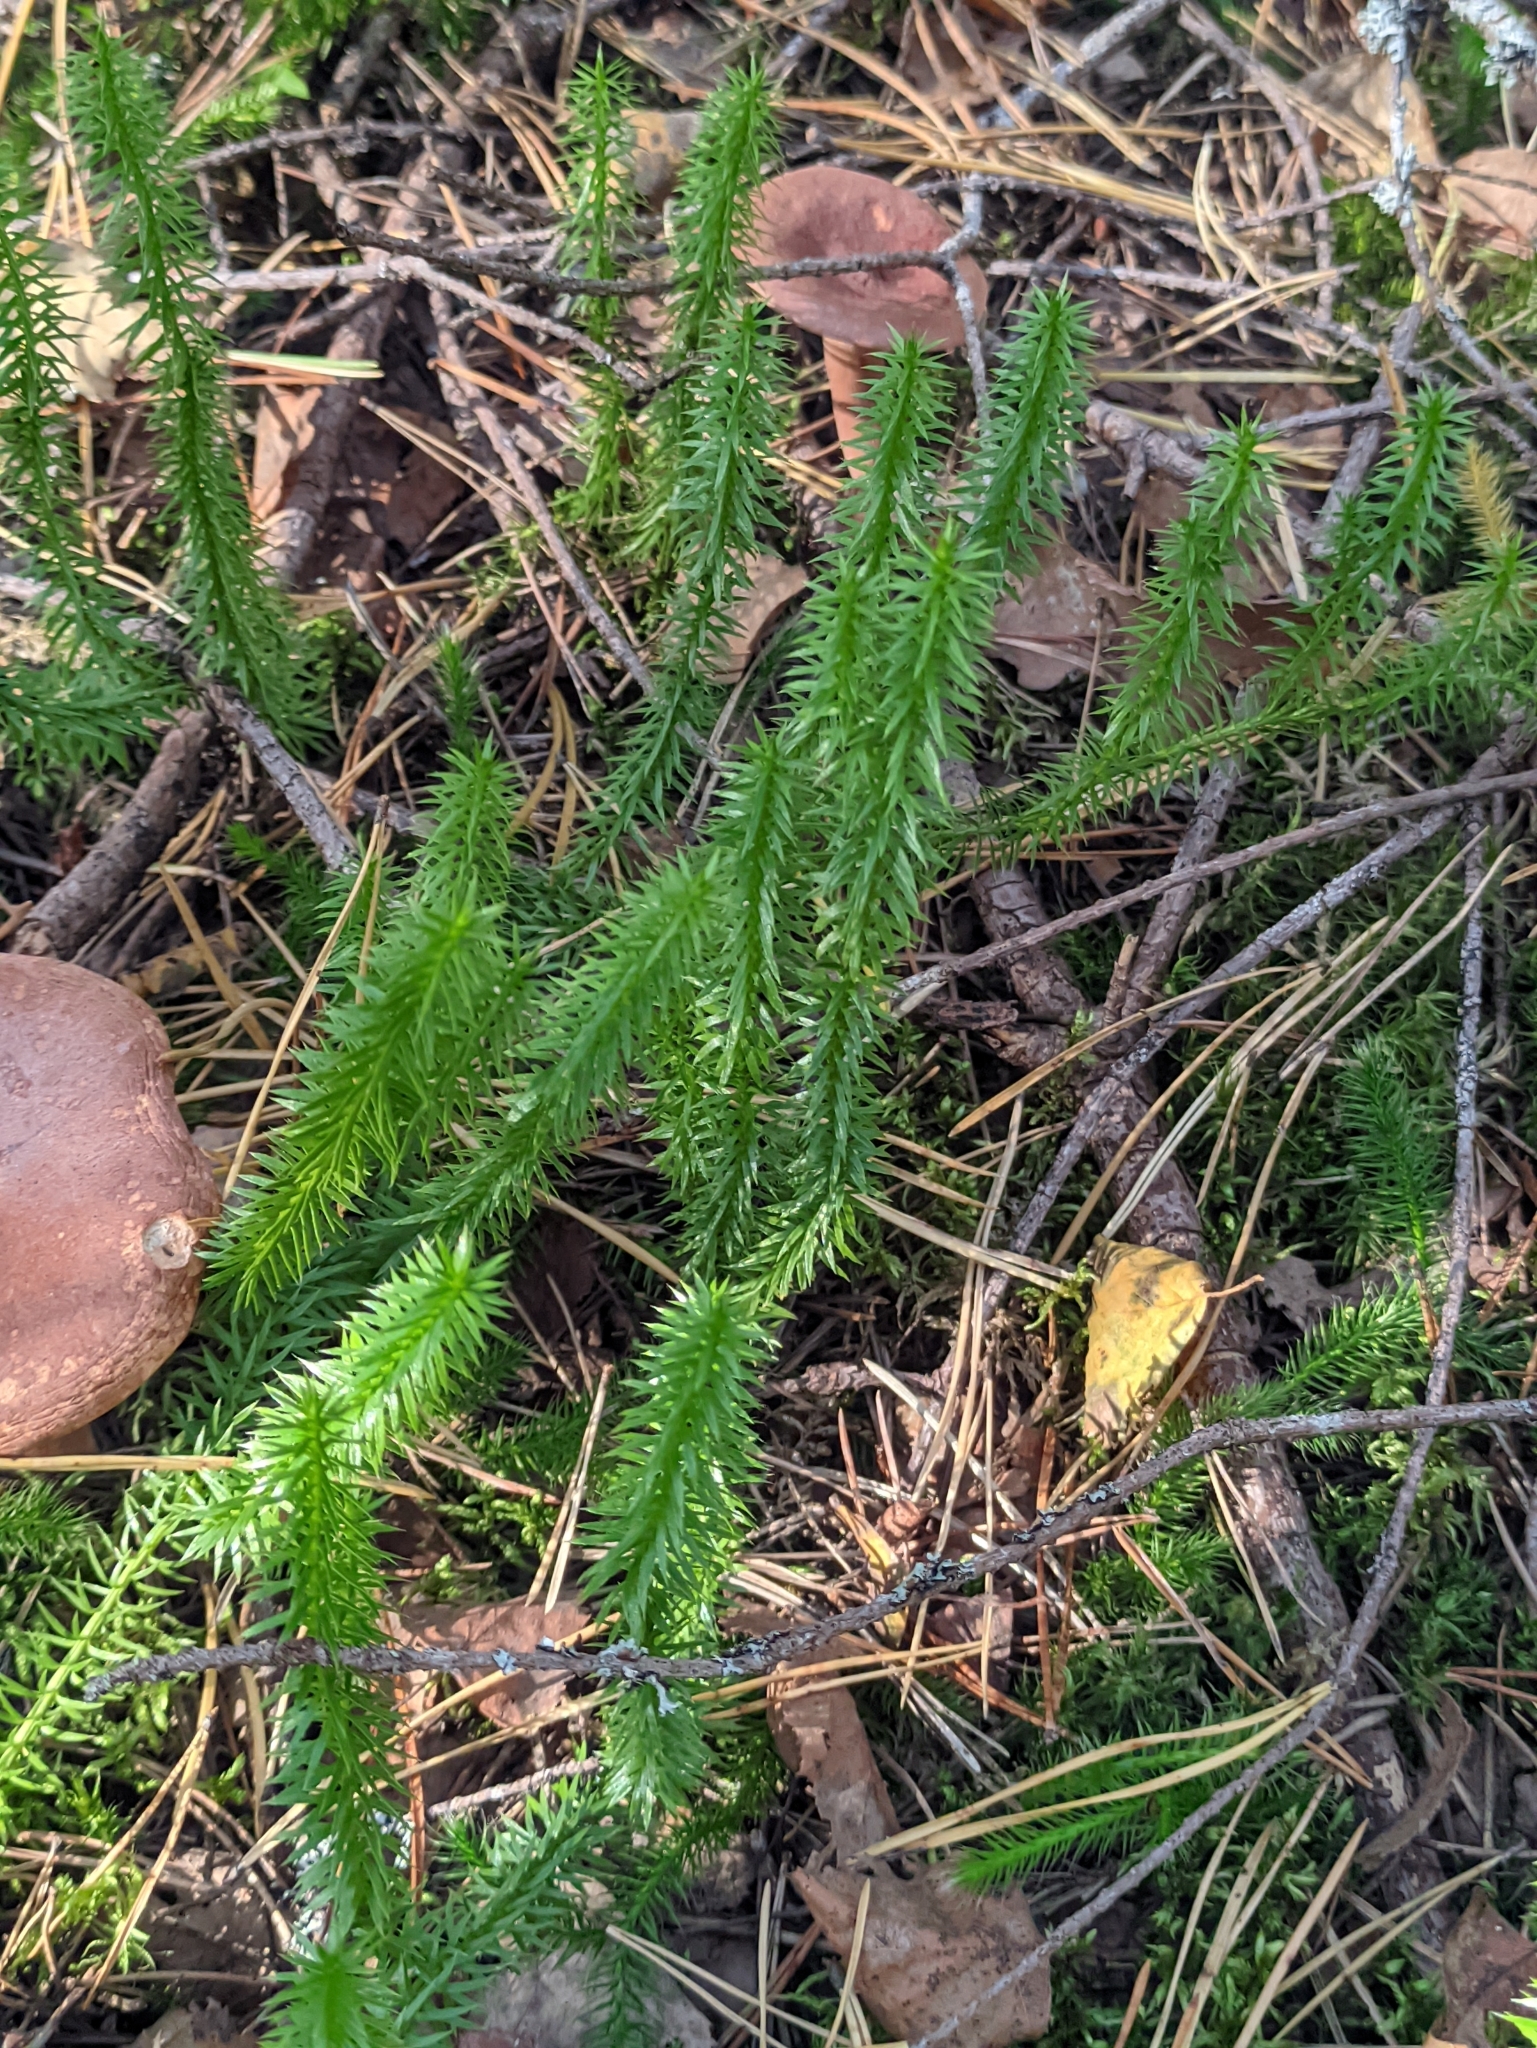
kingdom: Plantae
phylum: Tracheophyta
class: Lycopodiopsida
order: Lycopodiales
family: Lycopodiaceae
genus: Spinulum
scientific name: Spinulum annotinum
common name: Interrupted club-moss
